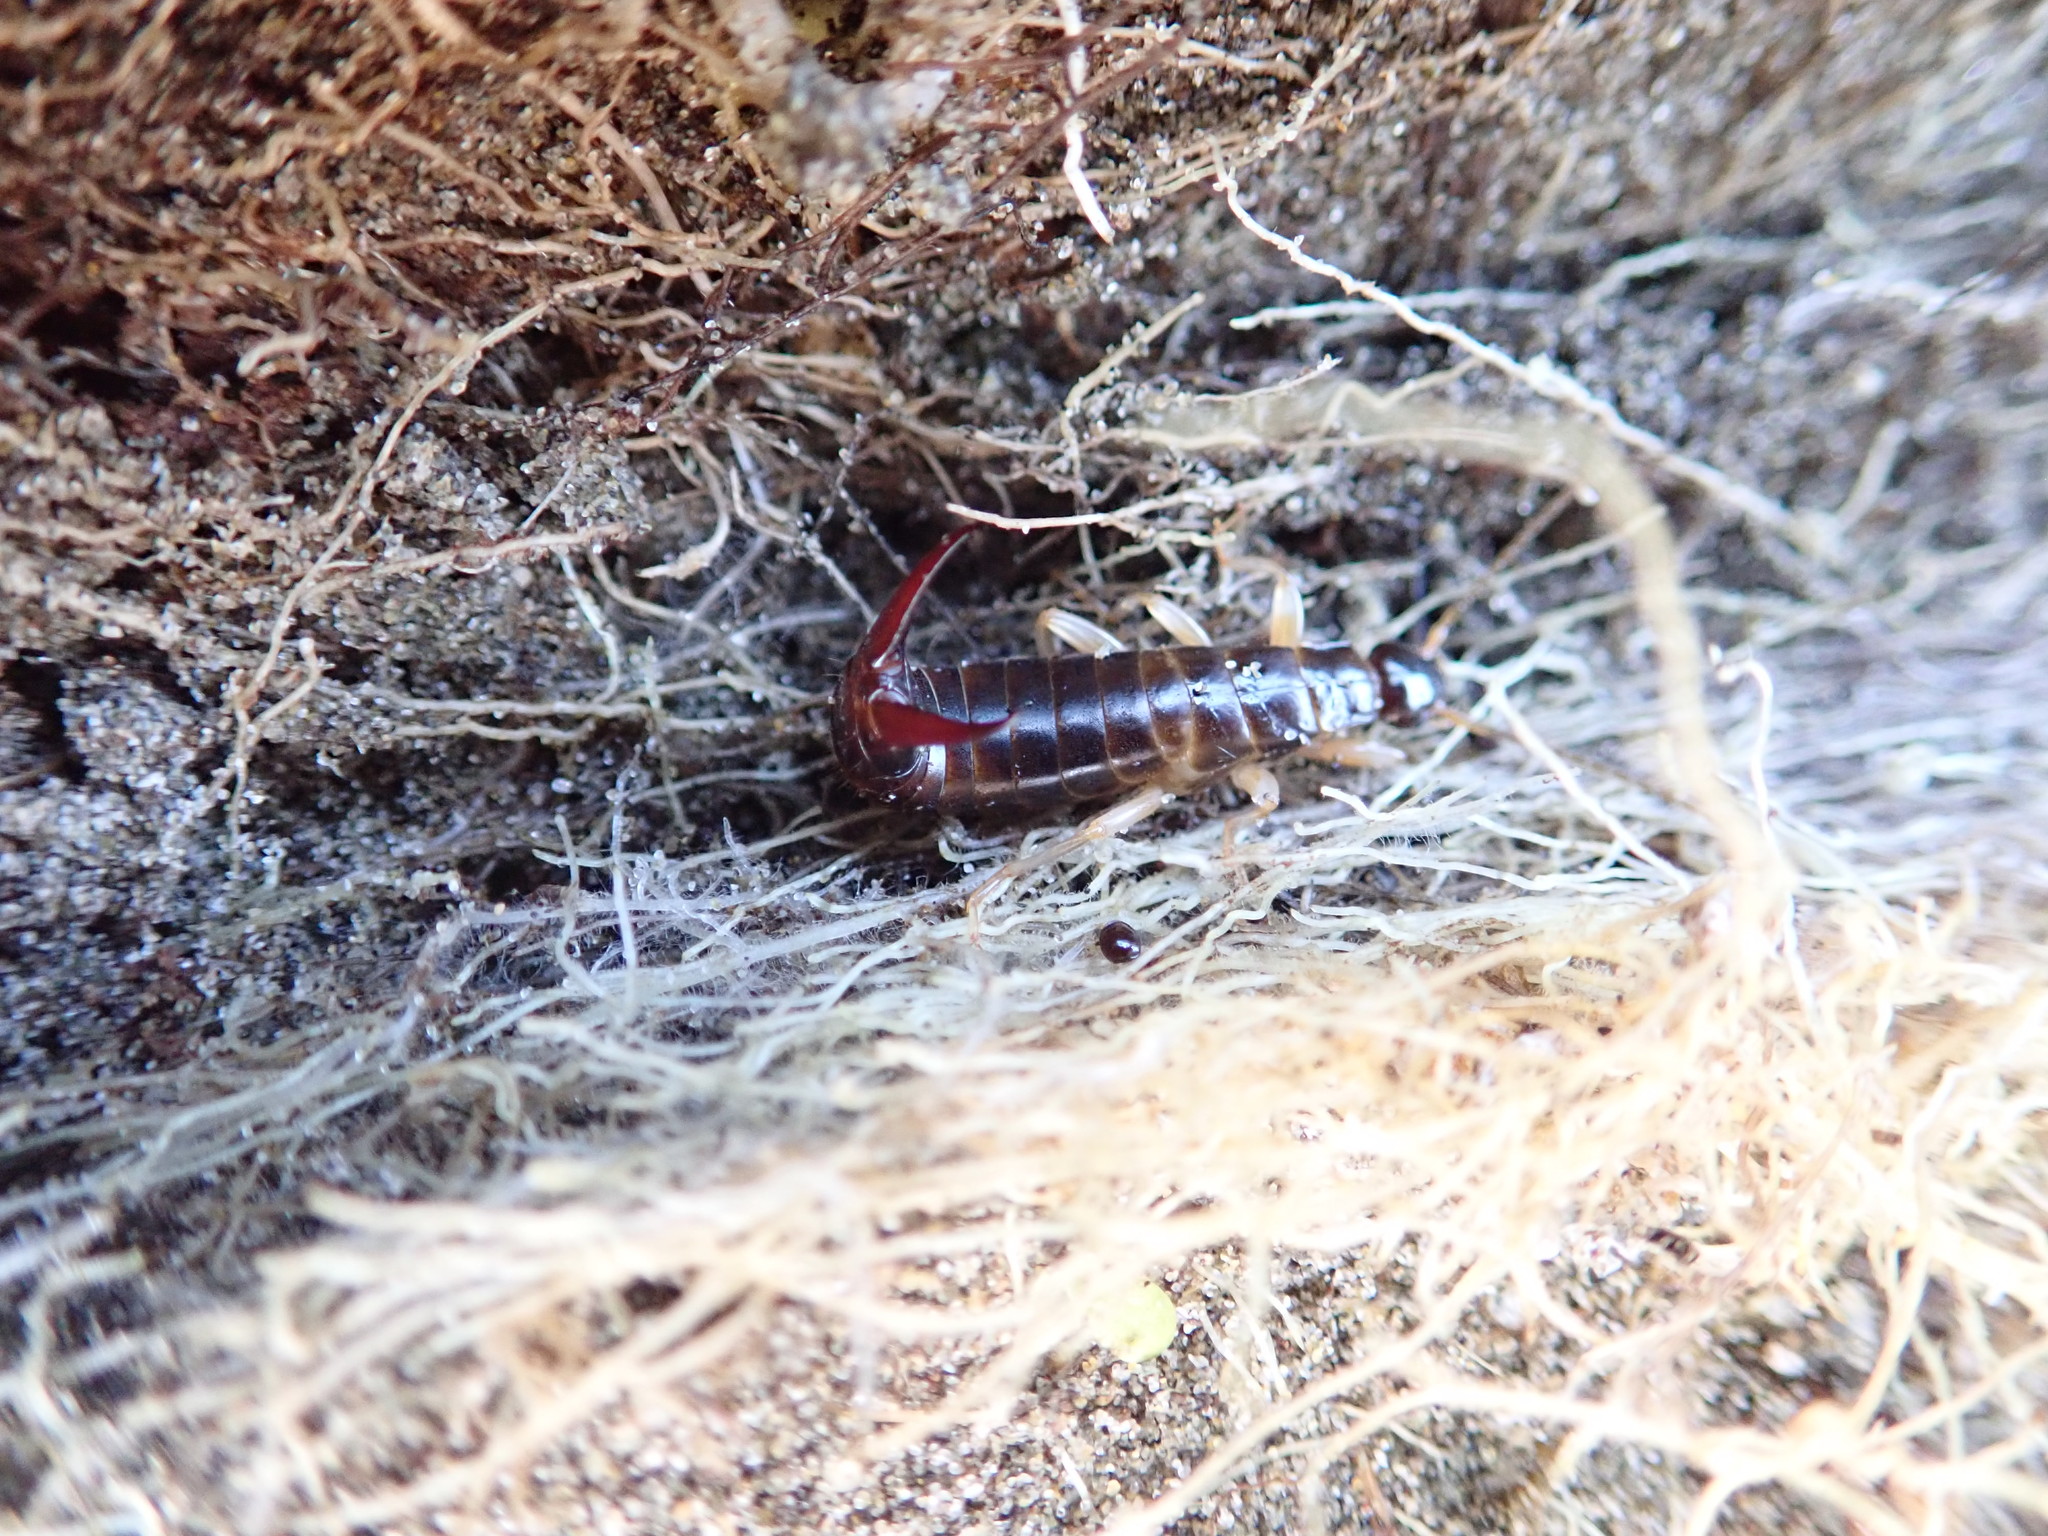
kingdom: Animalia
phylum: Arthropoda
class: Insecta
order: Dermaptera
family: Anisolabididae
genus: Anisolabis
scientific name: Anisolabis littorea
